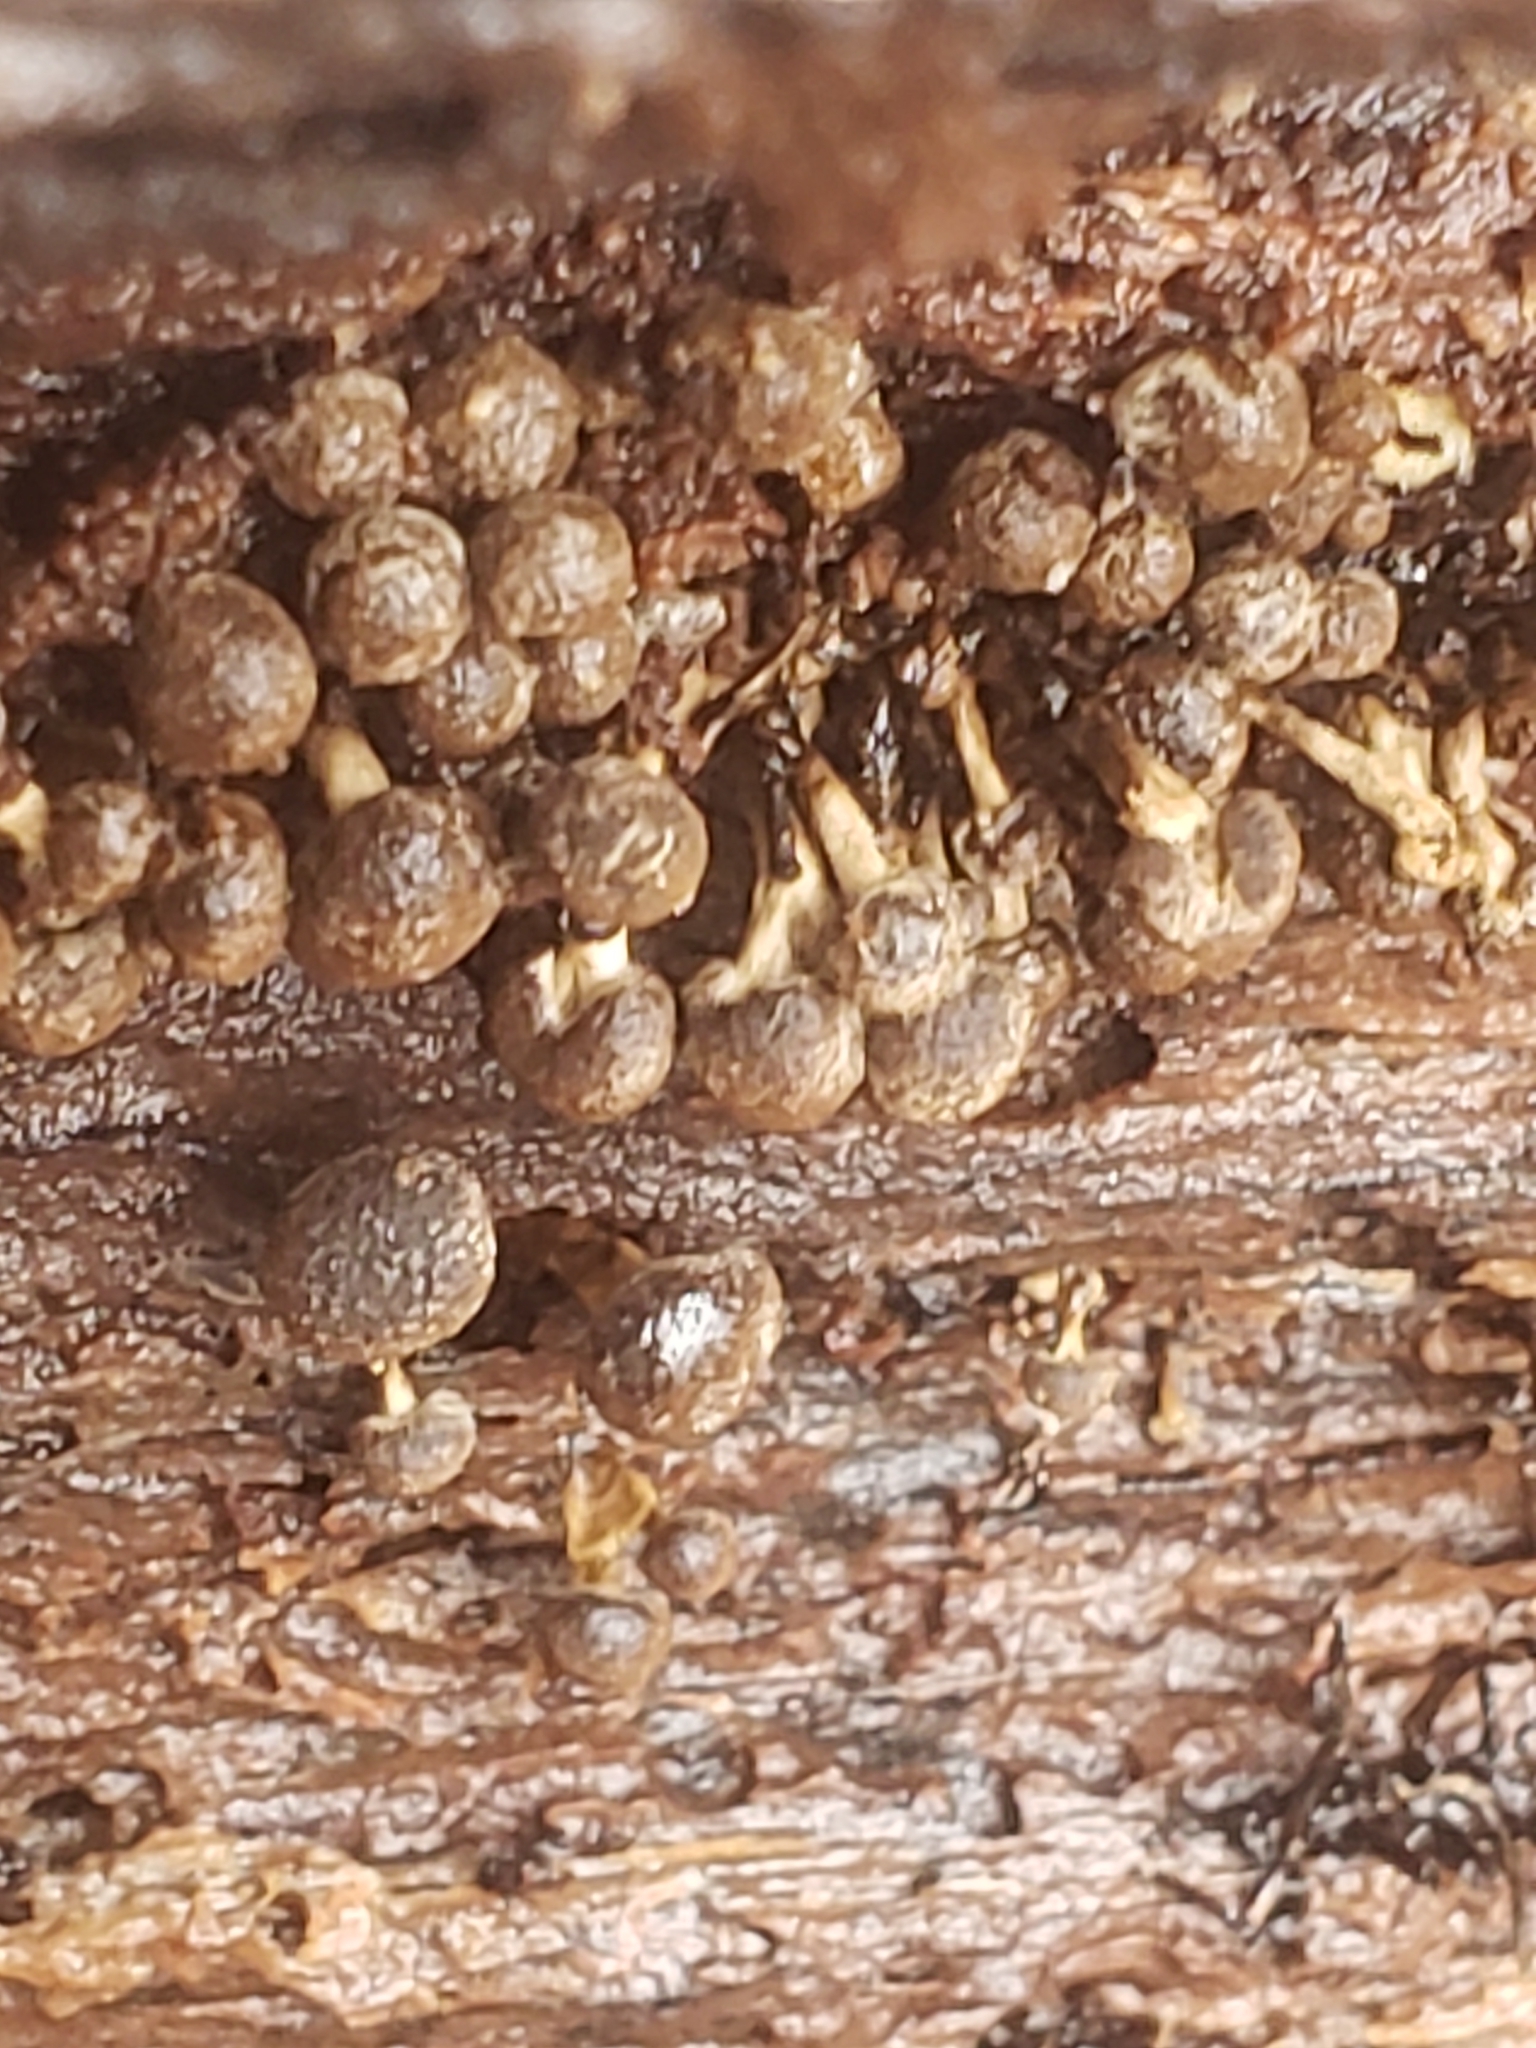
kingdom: Fungi
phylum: Basidiomycota
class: Atractiellomycetes
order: Atractiellales
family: Phleogenaceae
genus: Phleogena
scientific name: Phleogena faginea
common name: Fenugreek stalkball
